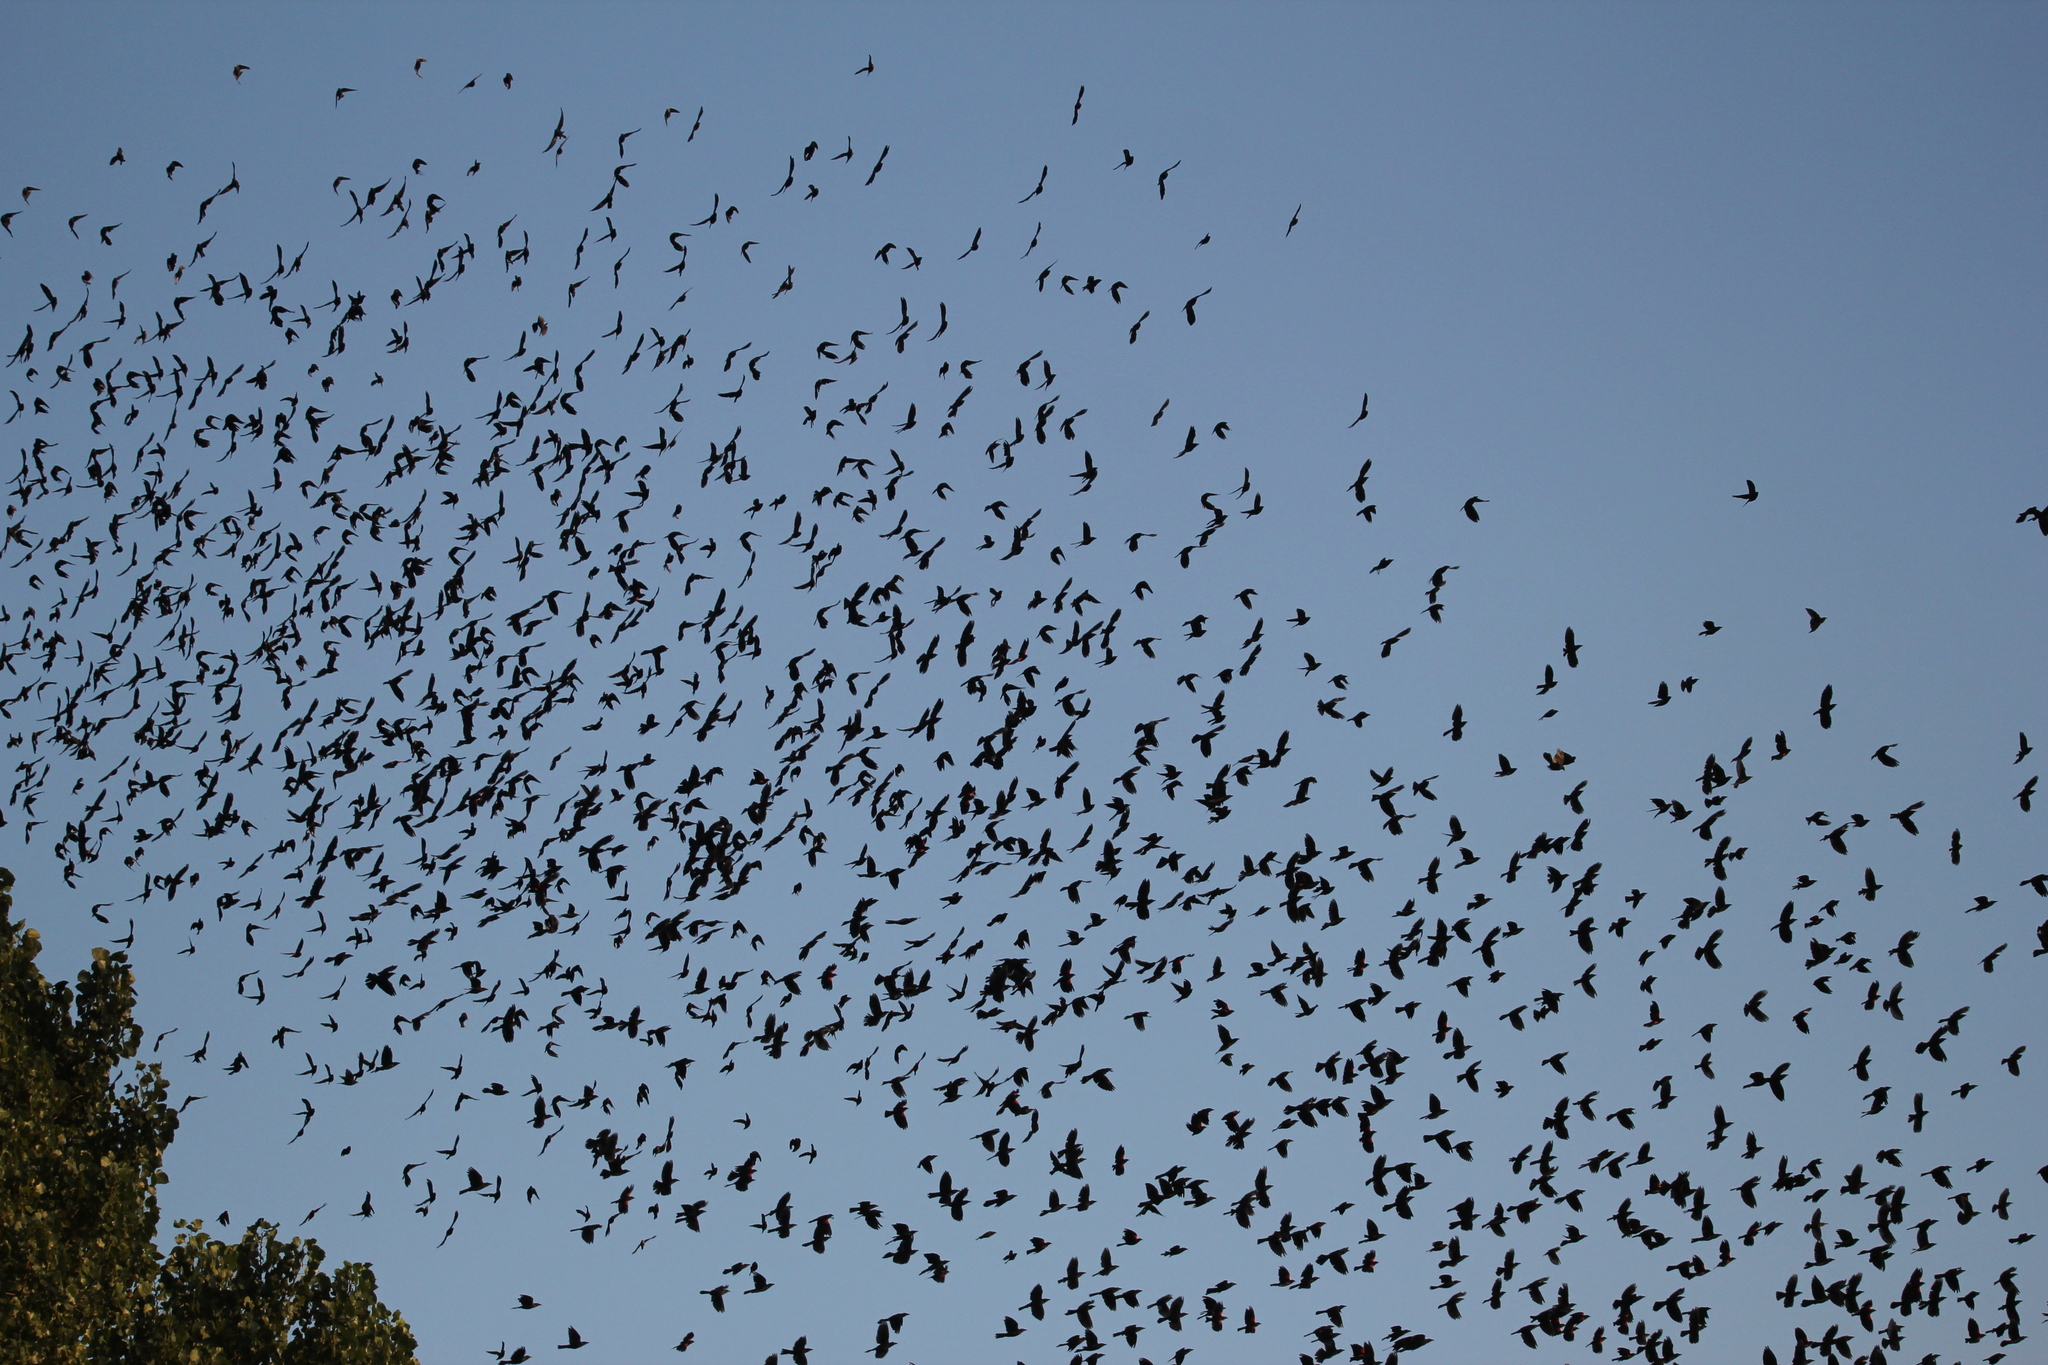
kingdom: Animalia
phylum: Chordata
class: Aves
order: Passeriformes
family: Icteridae
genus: Agelaius
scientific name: Agelaius phoeniceus
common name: Red-winged blackbird
